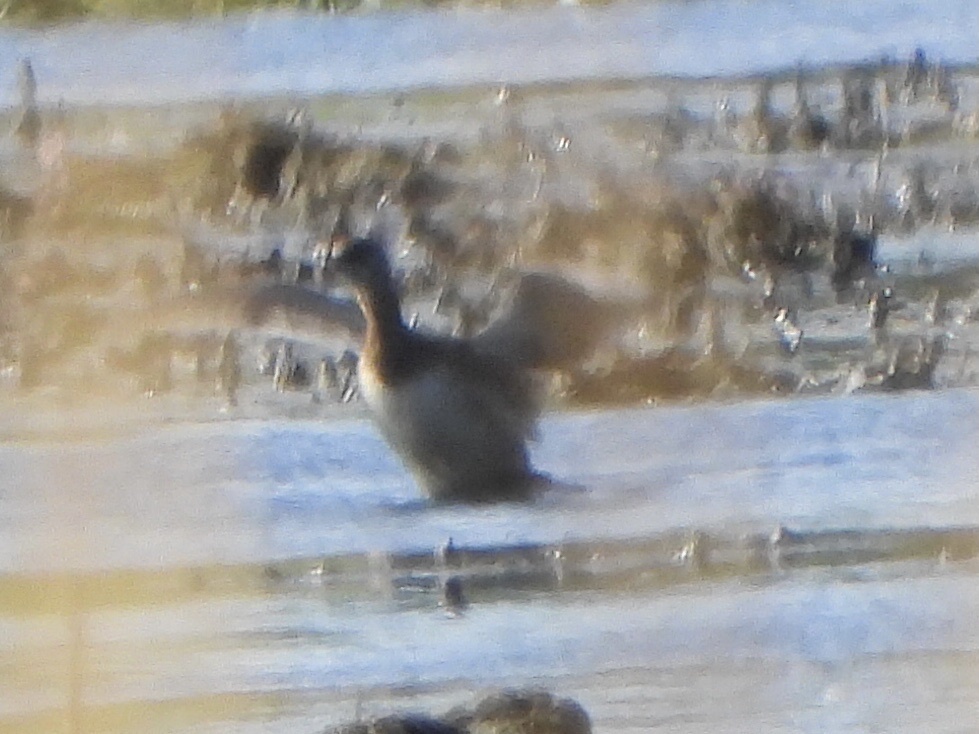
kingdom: Animalia
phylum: Chordata
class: Aves
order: Podicipediformes
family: Podicipedidae
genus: Podilymbus
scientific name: Podilymbus podiceps
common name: Pied-billed grebe
